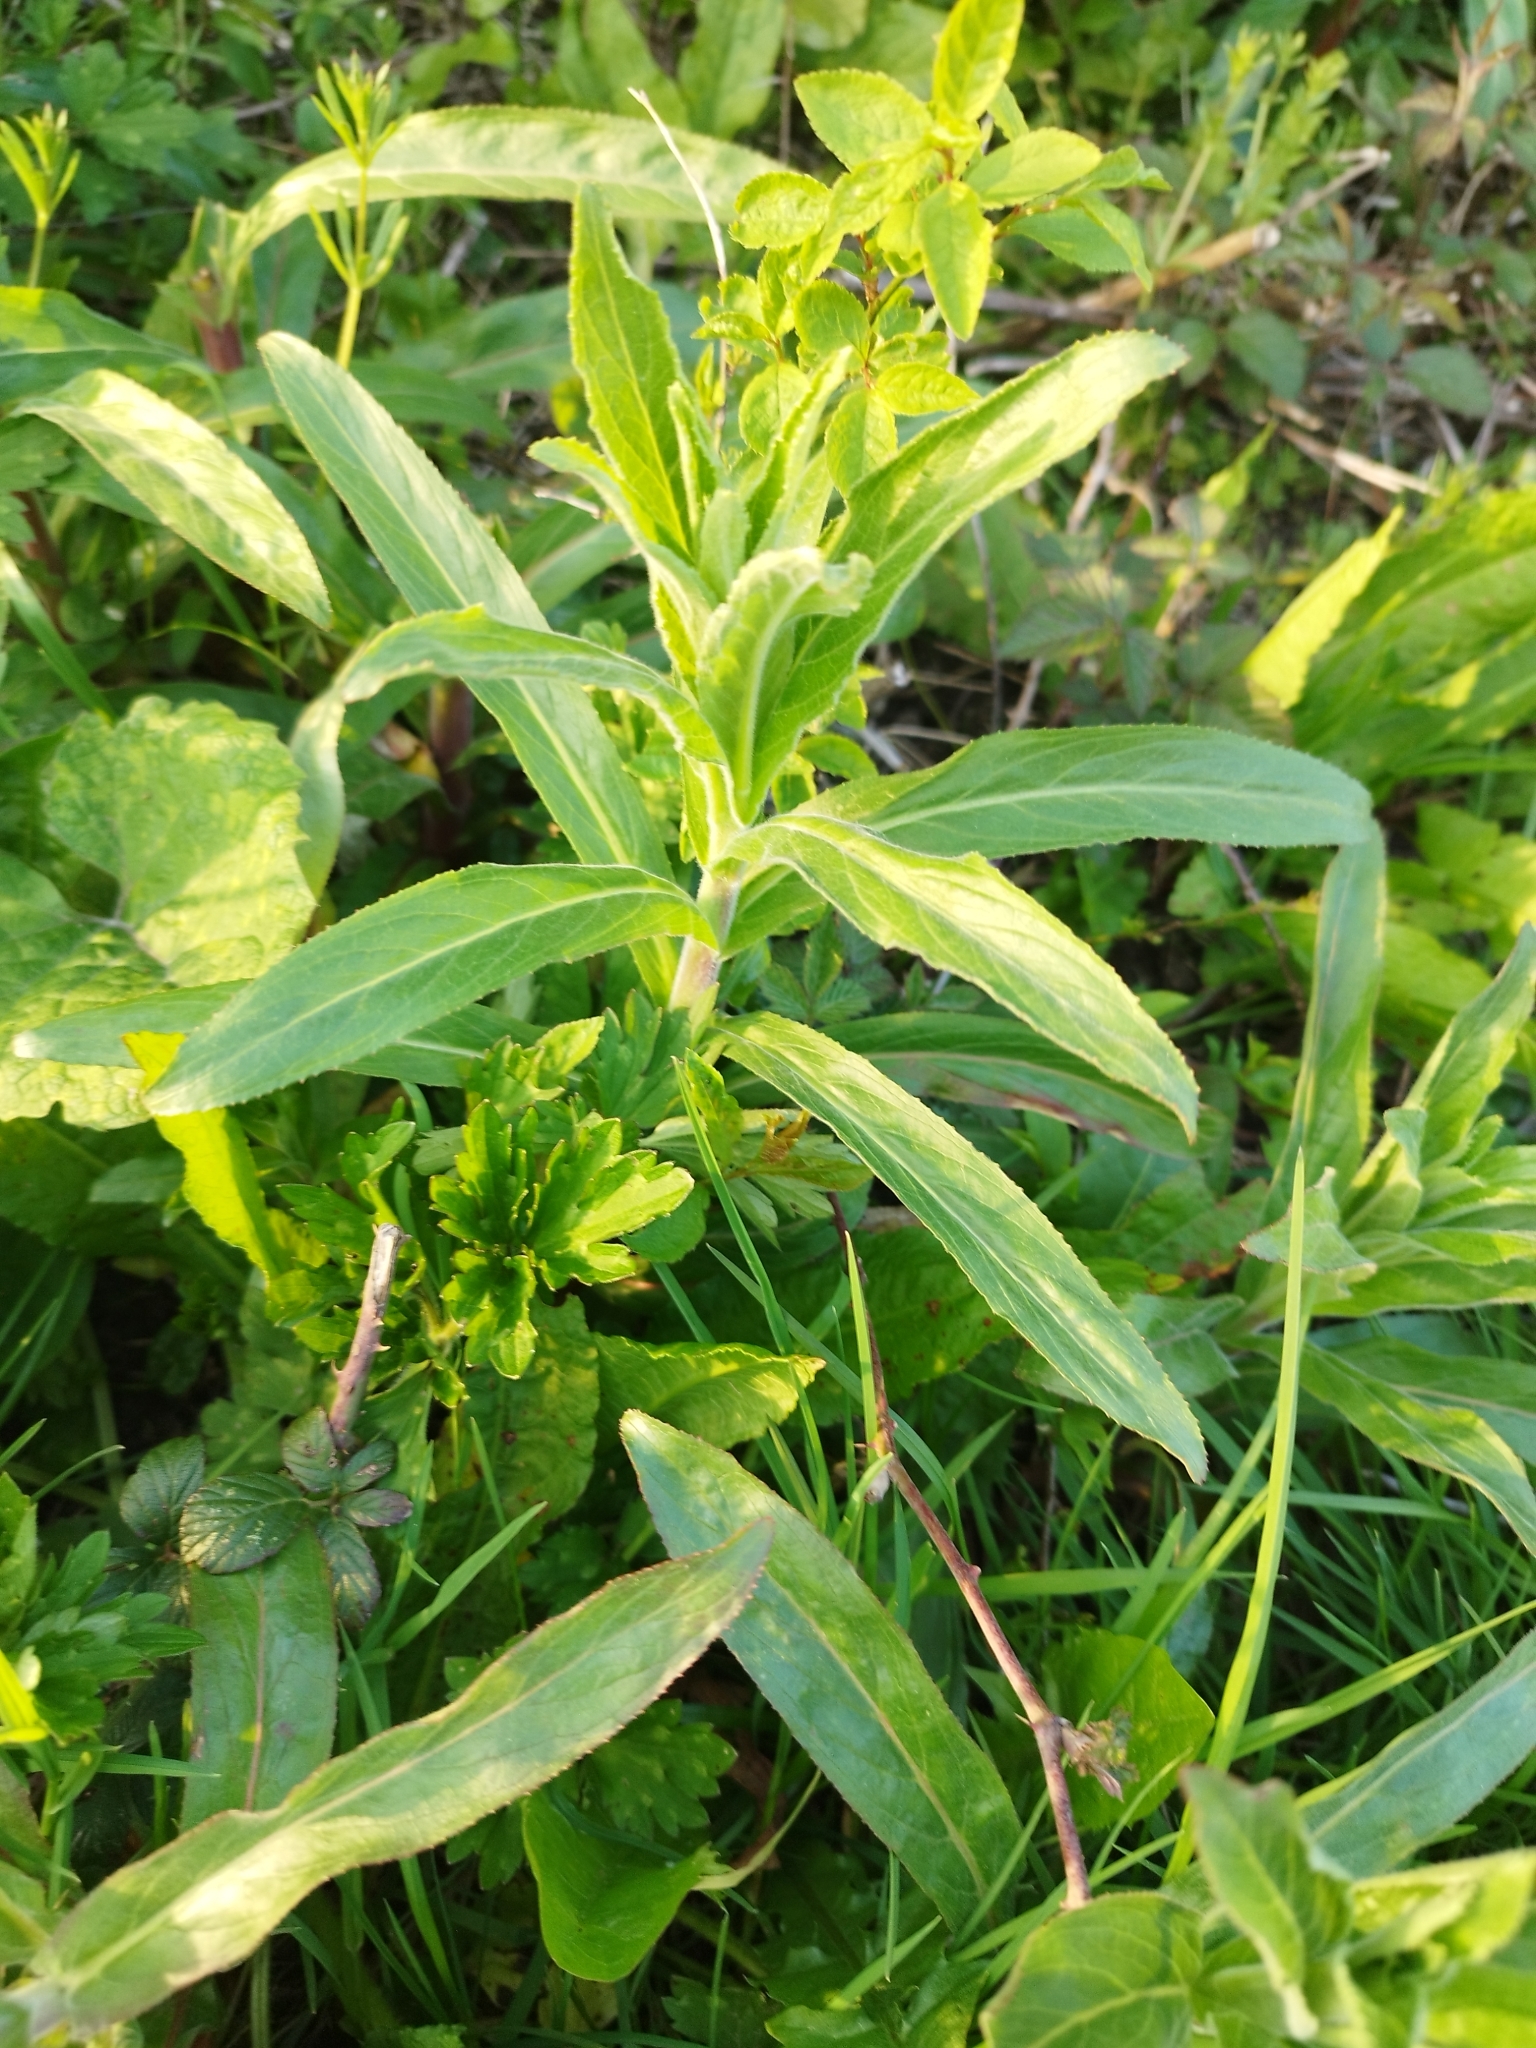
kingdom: Plantae
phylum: Tracheophyta
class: Magnoliopsida
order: Myrtales
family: Onagraceae
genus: Epilobium
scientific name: Epilobium hirsutum
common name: Great willowherb
